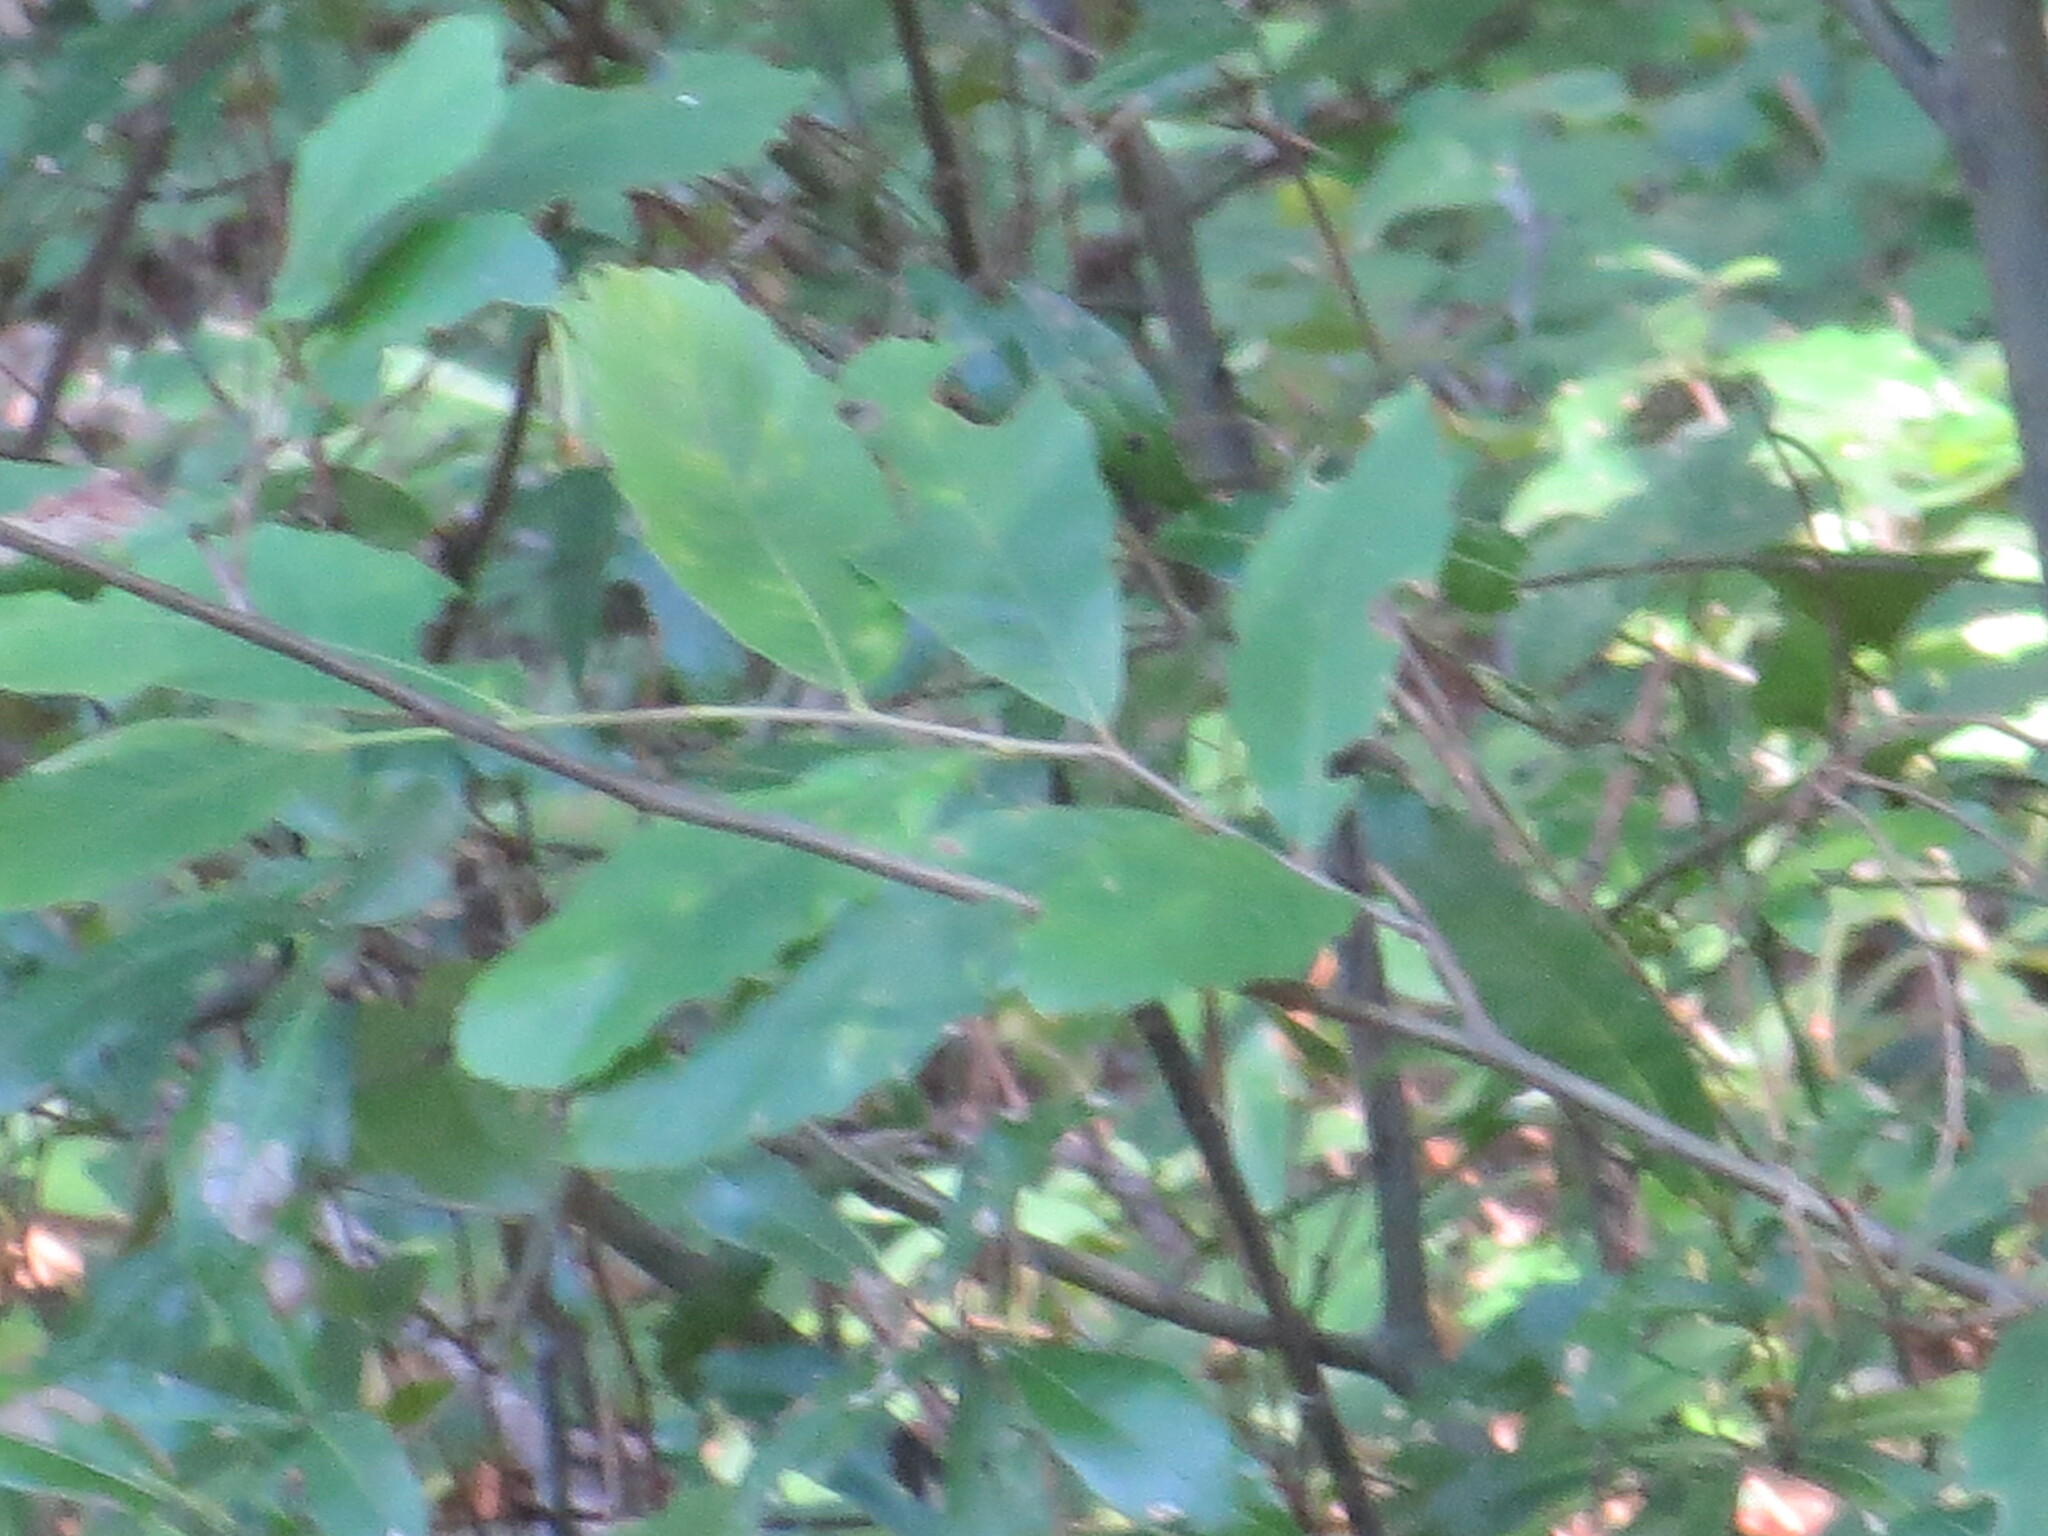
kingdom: Plantae
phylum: Tracheophyta
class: Magnoliopsida
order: Fagales
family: Fagaceae
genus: Castanea
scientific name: Castanea pumila
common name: Chinkapin
